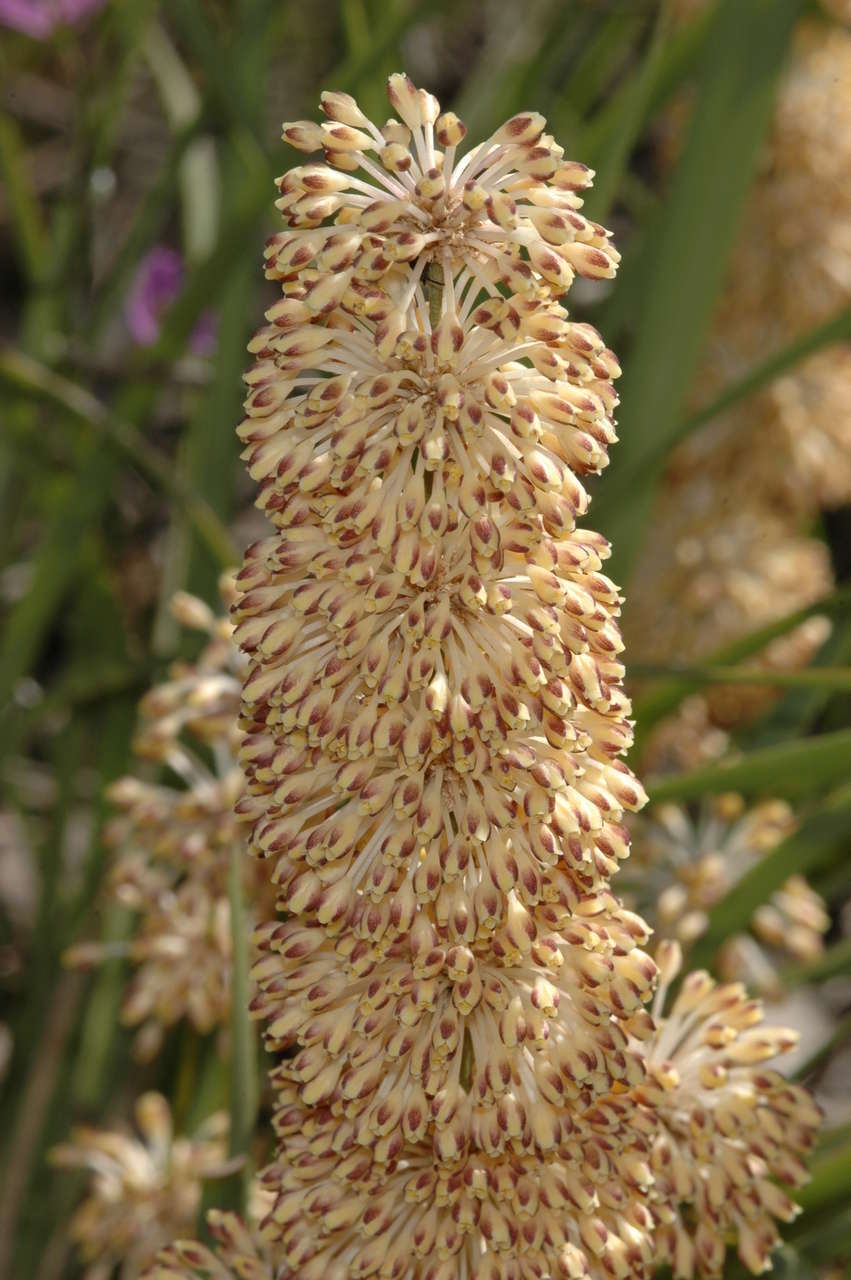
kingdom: Plantae
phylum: Tracheophyta
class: Liliopsida
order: Asparagales
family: Asparagaceae
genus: Lomandra
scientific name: Lomandra multiflora
